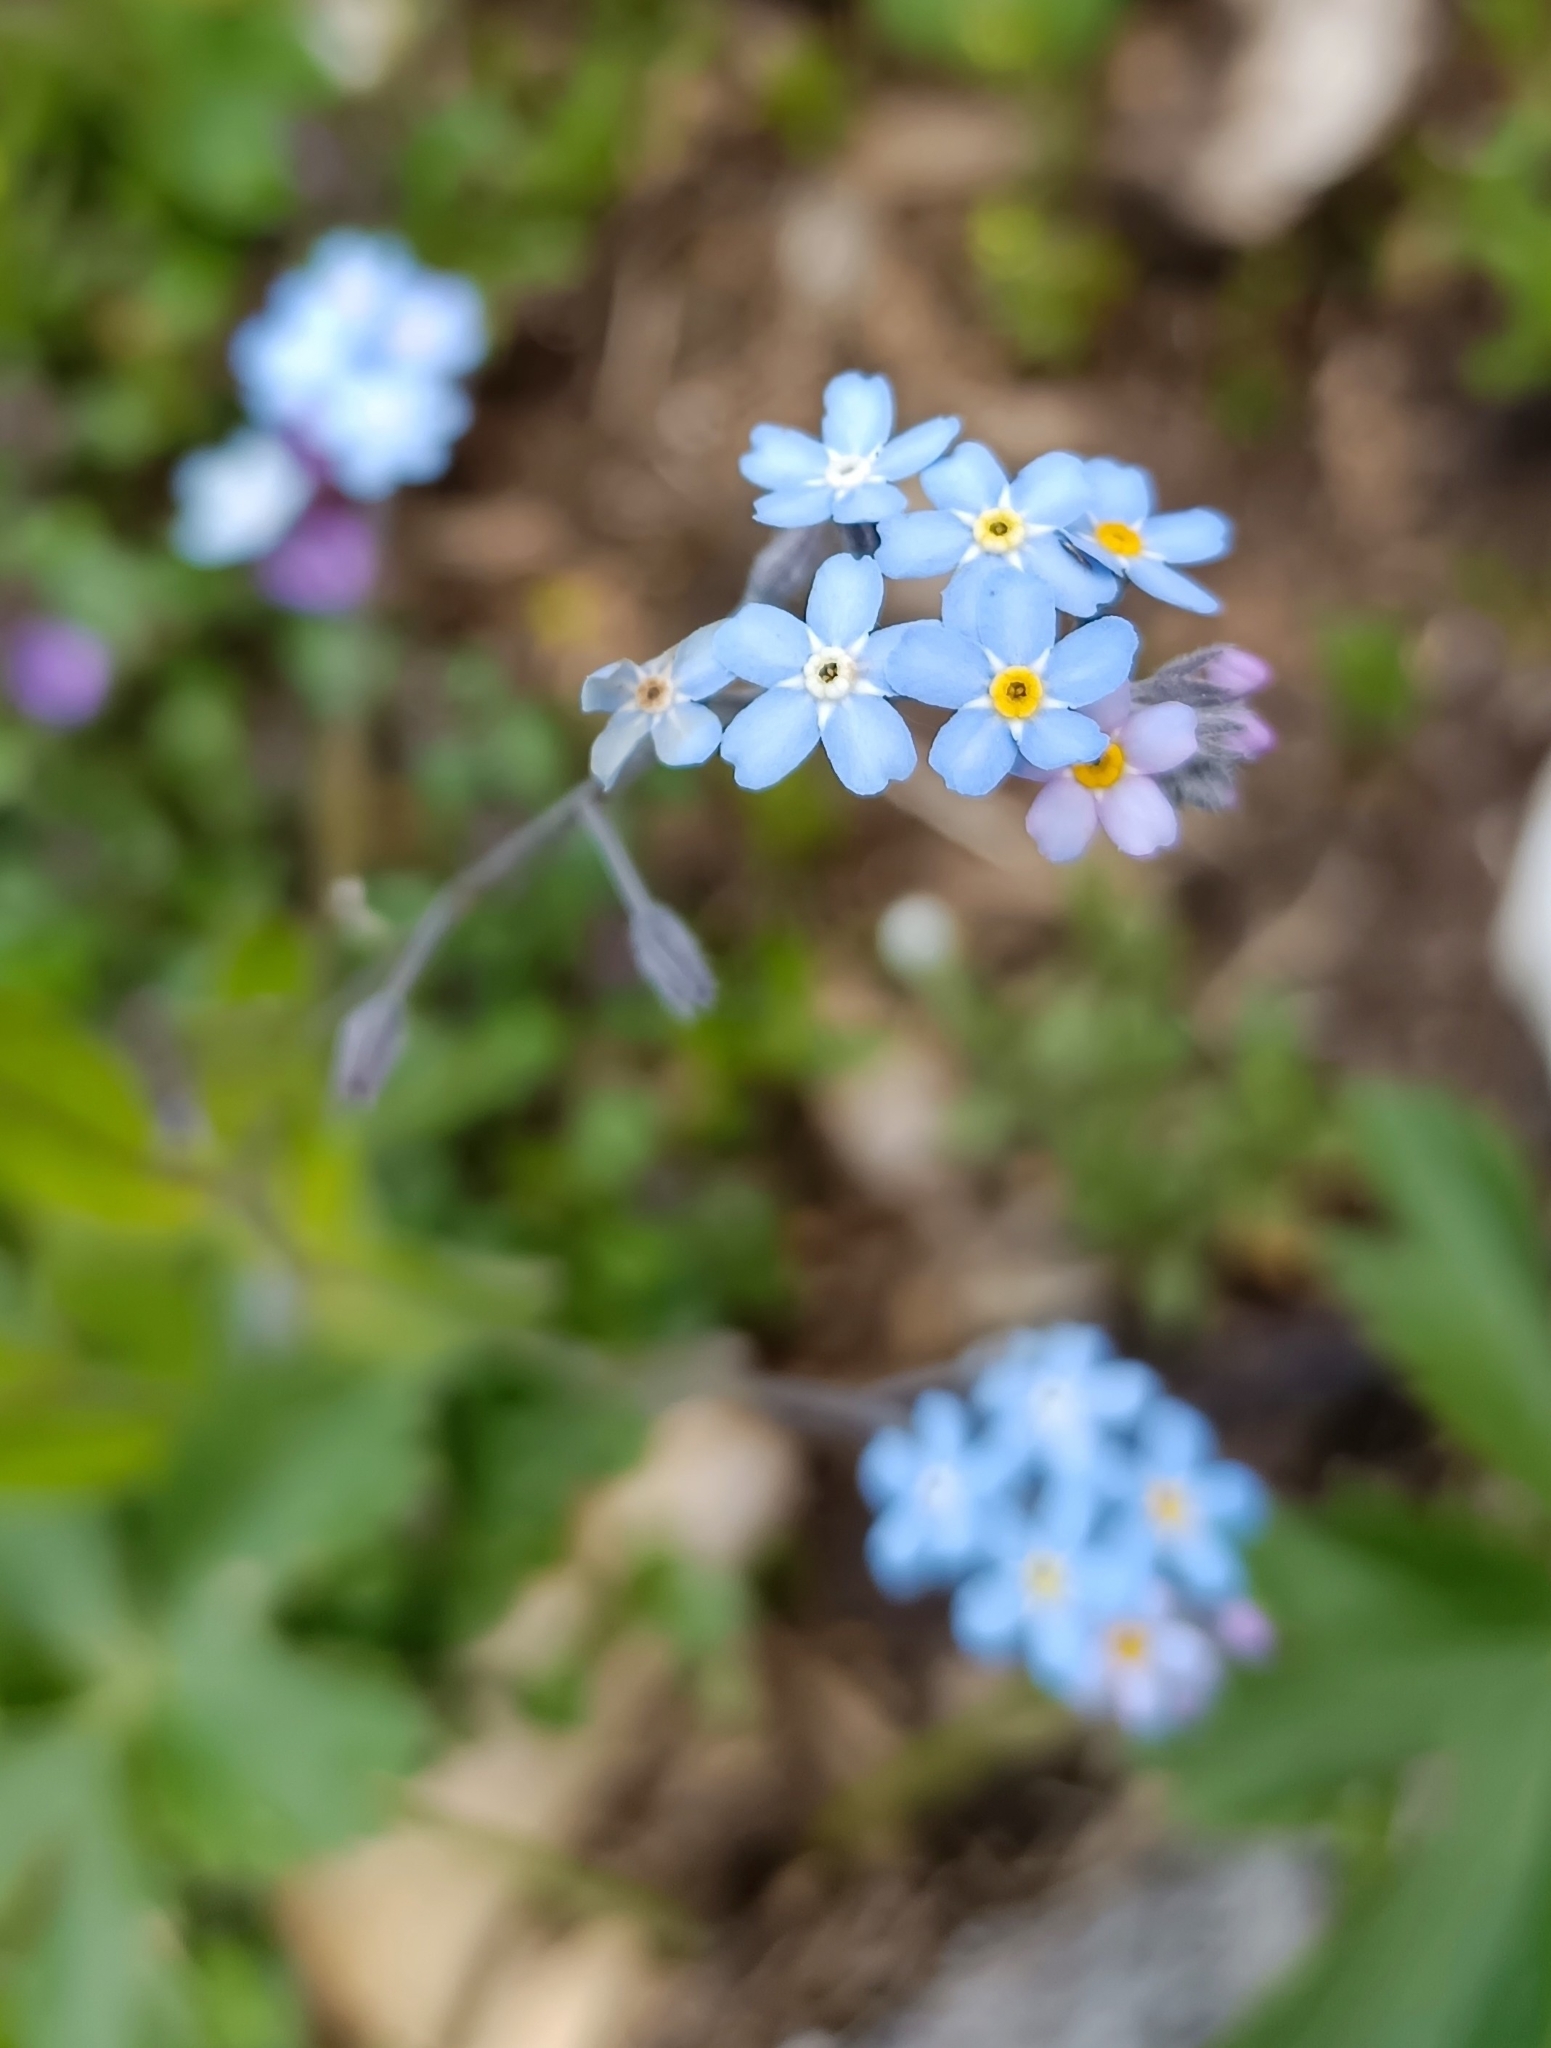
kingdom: Plantae
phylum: Tracheophyta
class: Magnoliopsida
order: Boraginales
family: Boraginaceae
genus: Myosotis
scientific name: Myosotis alpestris
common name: Alpine forget-me-not
